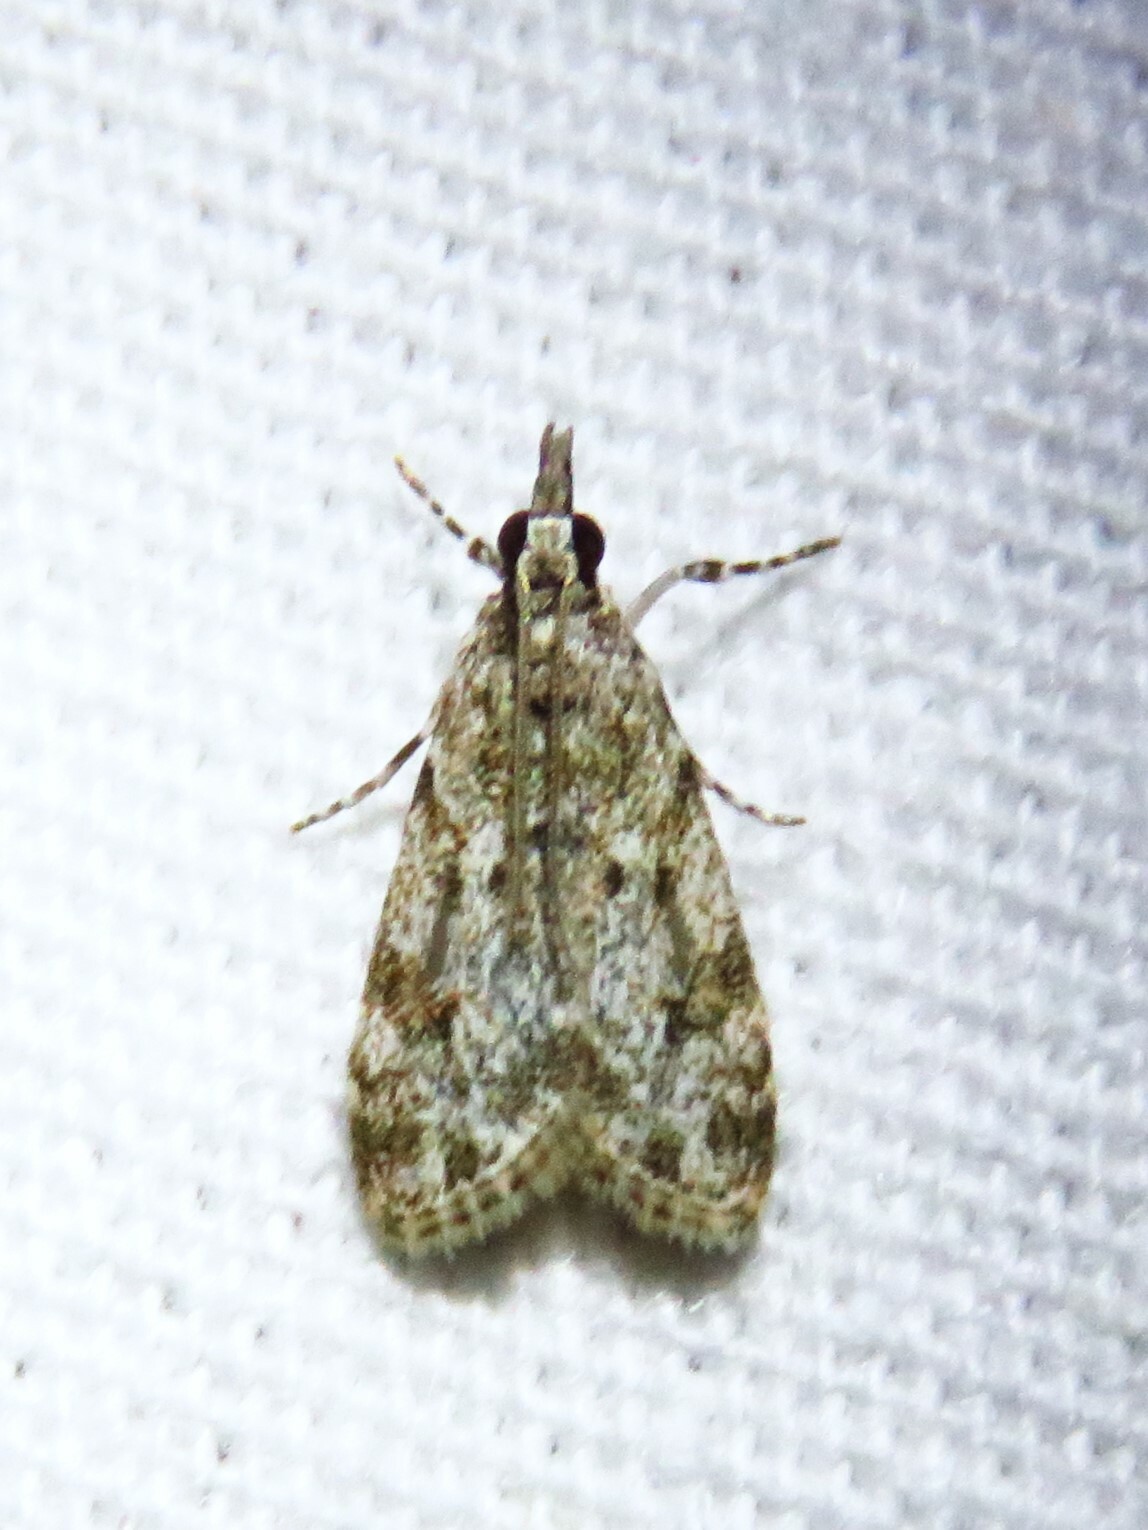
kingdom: Animalia
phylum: Arthropoda
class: Insecta
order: Lepidoptera
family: Crambidae
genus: Eudonia
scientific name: Eudonia heterosalis
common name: Mcdunnough's eudonia
